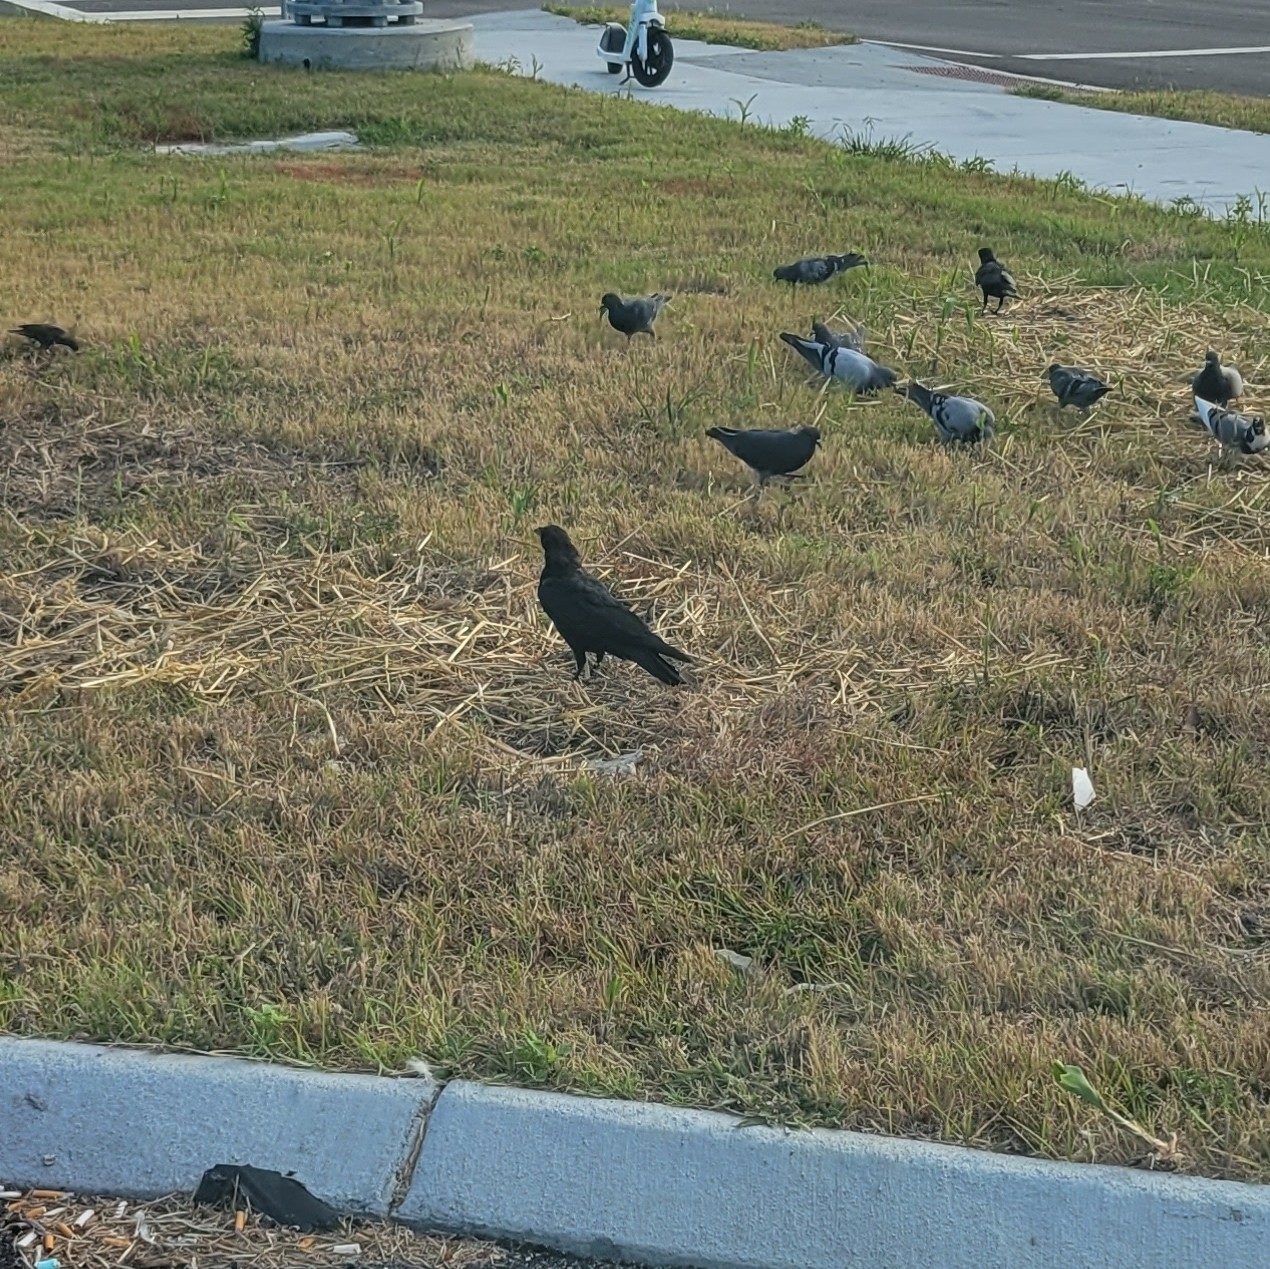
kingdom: Animalia
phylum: Chordata
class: Aves
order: Passeriformes
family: Corvidae
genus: Corvus
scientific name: Corvus brachyrhynchos
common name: American crow
